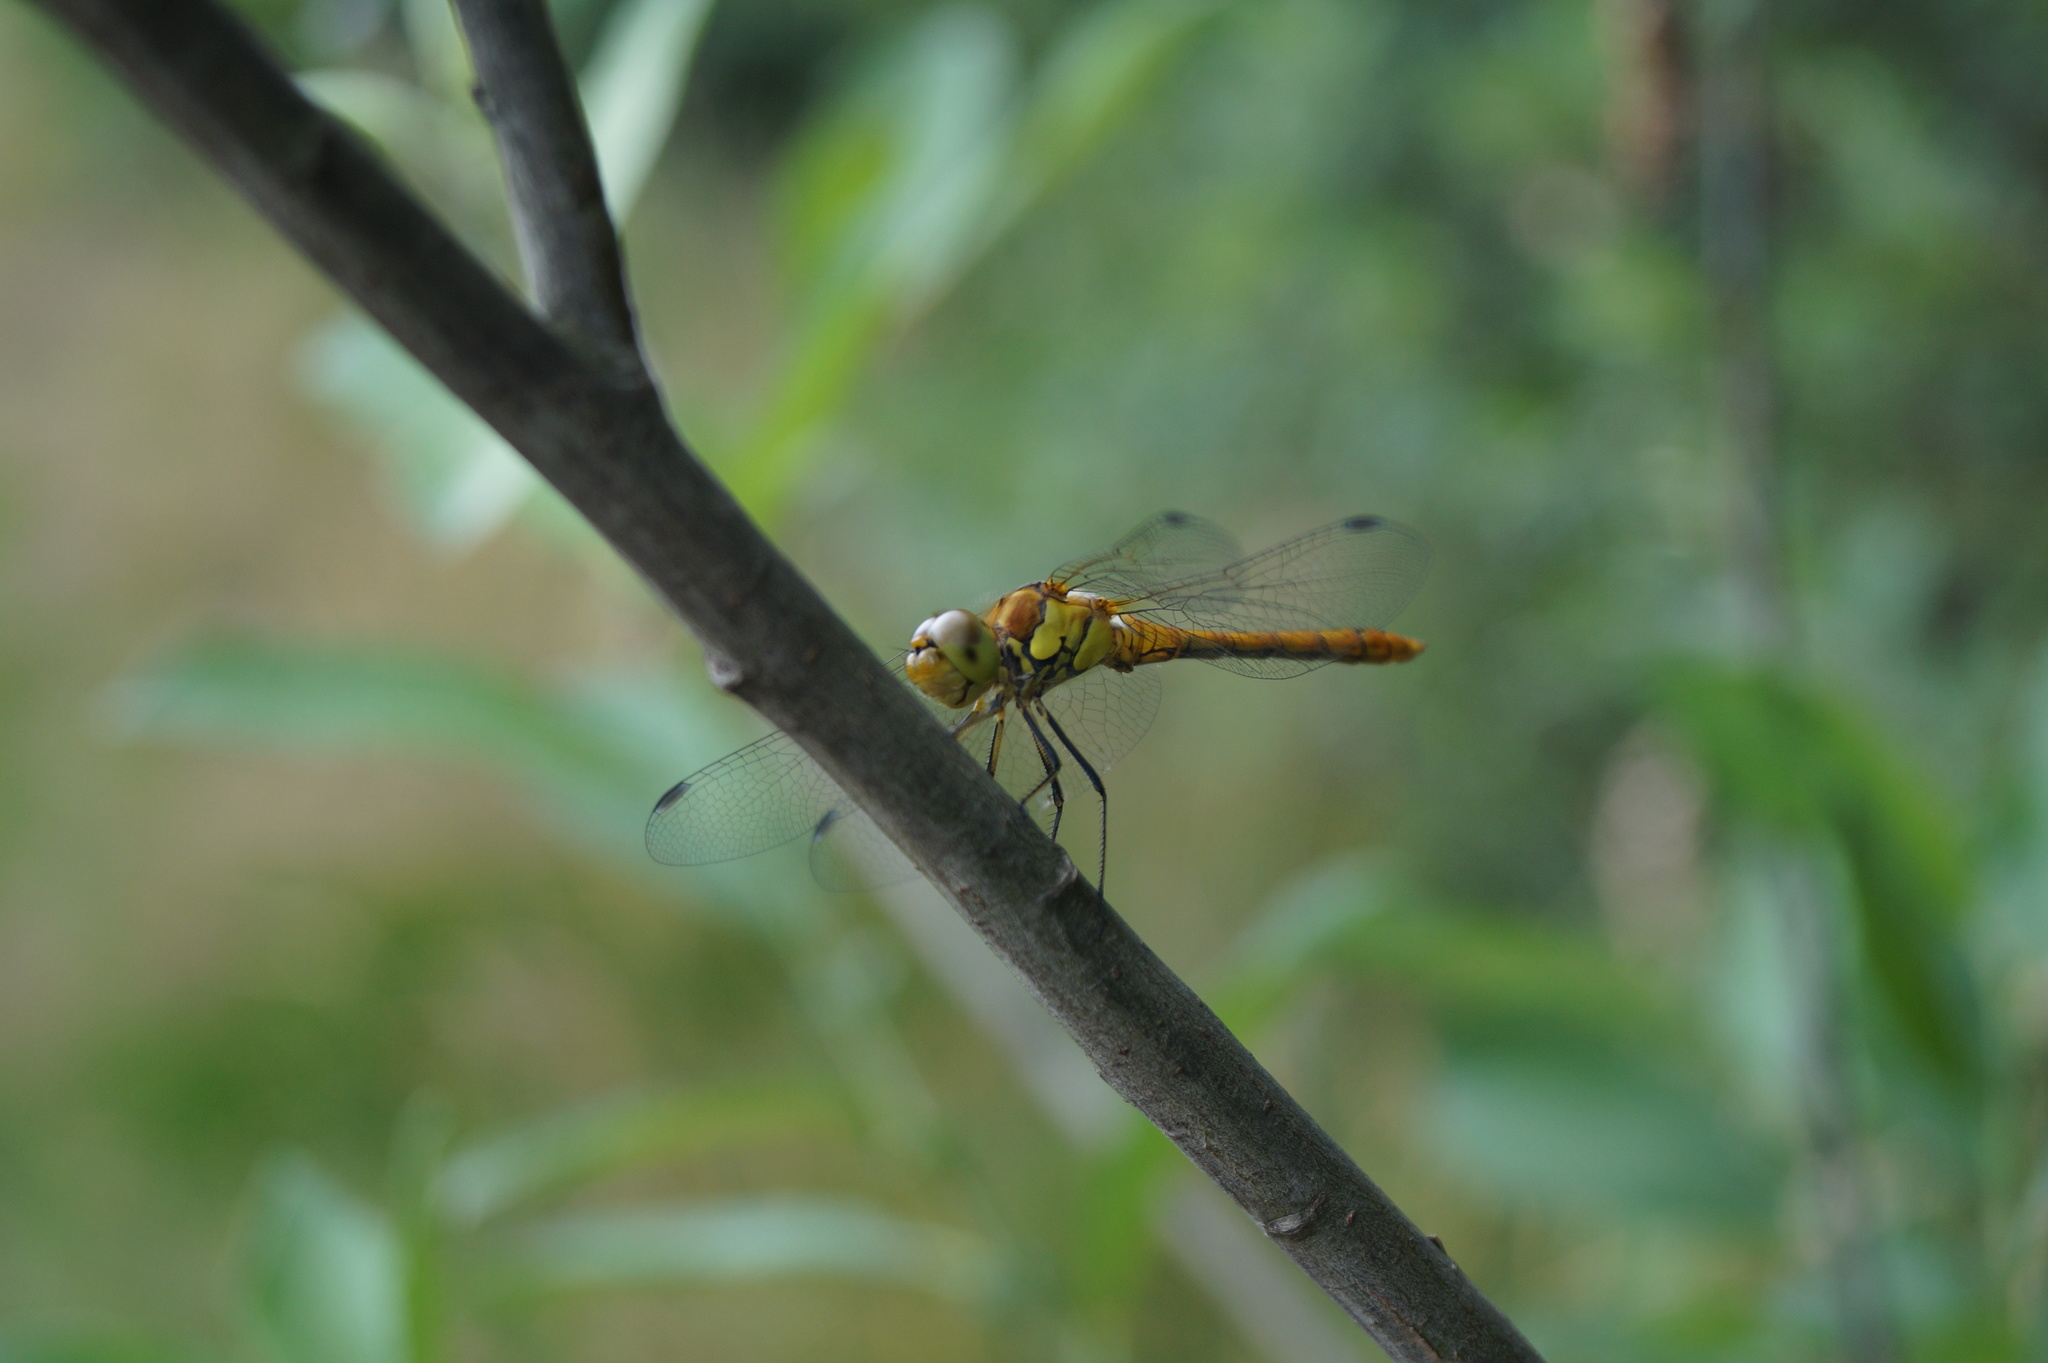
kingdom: Animalia
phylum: Arthropoda
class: Insecta
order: Odonata
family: Libellulidae
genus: Sympetrum
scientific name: Sympetrum striolatum
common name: Common darter
